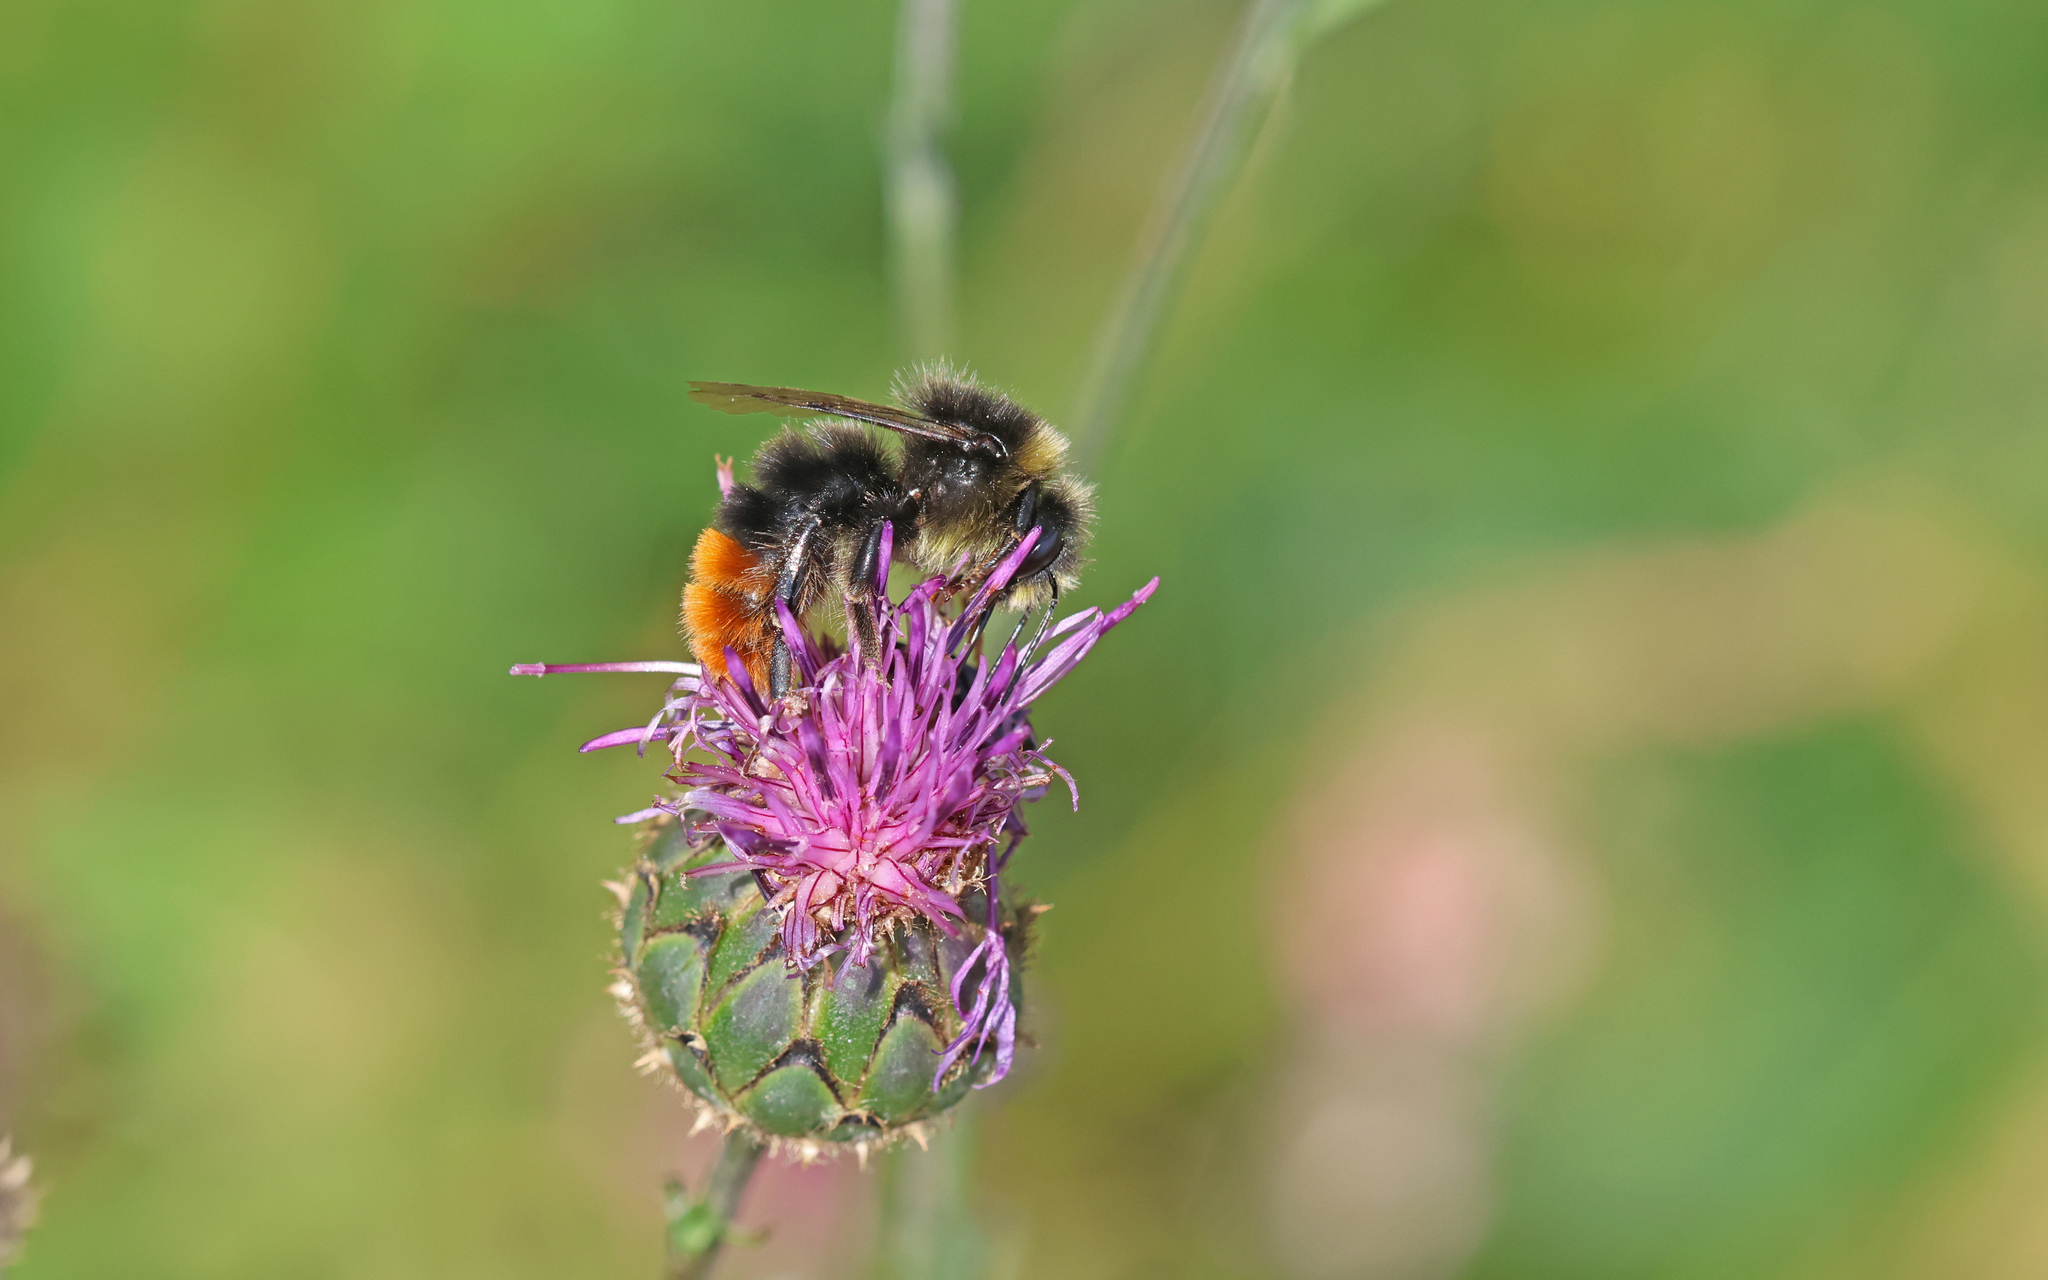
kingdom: Animalia
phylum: Arthropoda
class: Insecta
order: Hymenoptera
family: Apidae
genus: Bombus
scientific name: Bombus lapidarius
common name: Large red-tailed humble-bee
